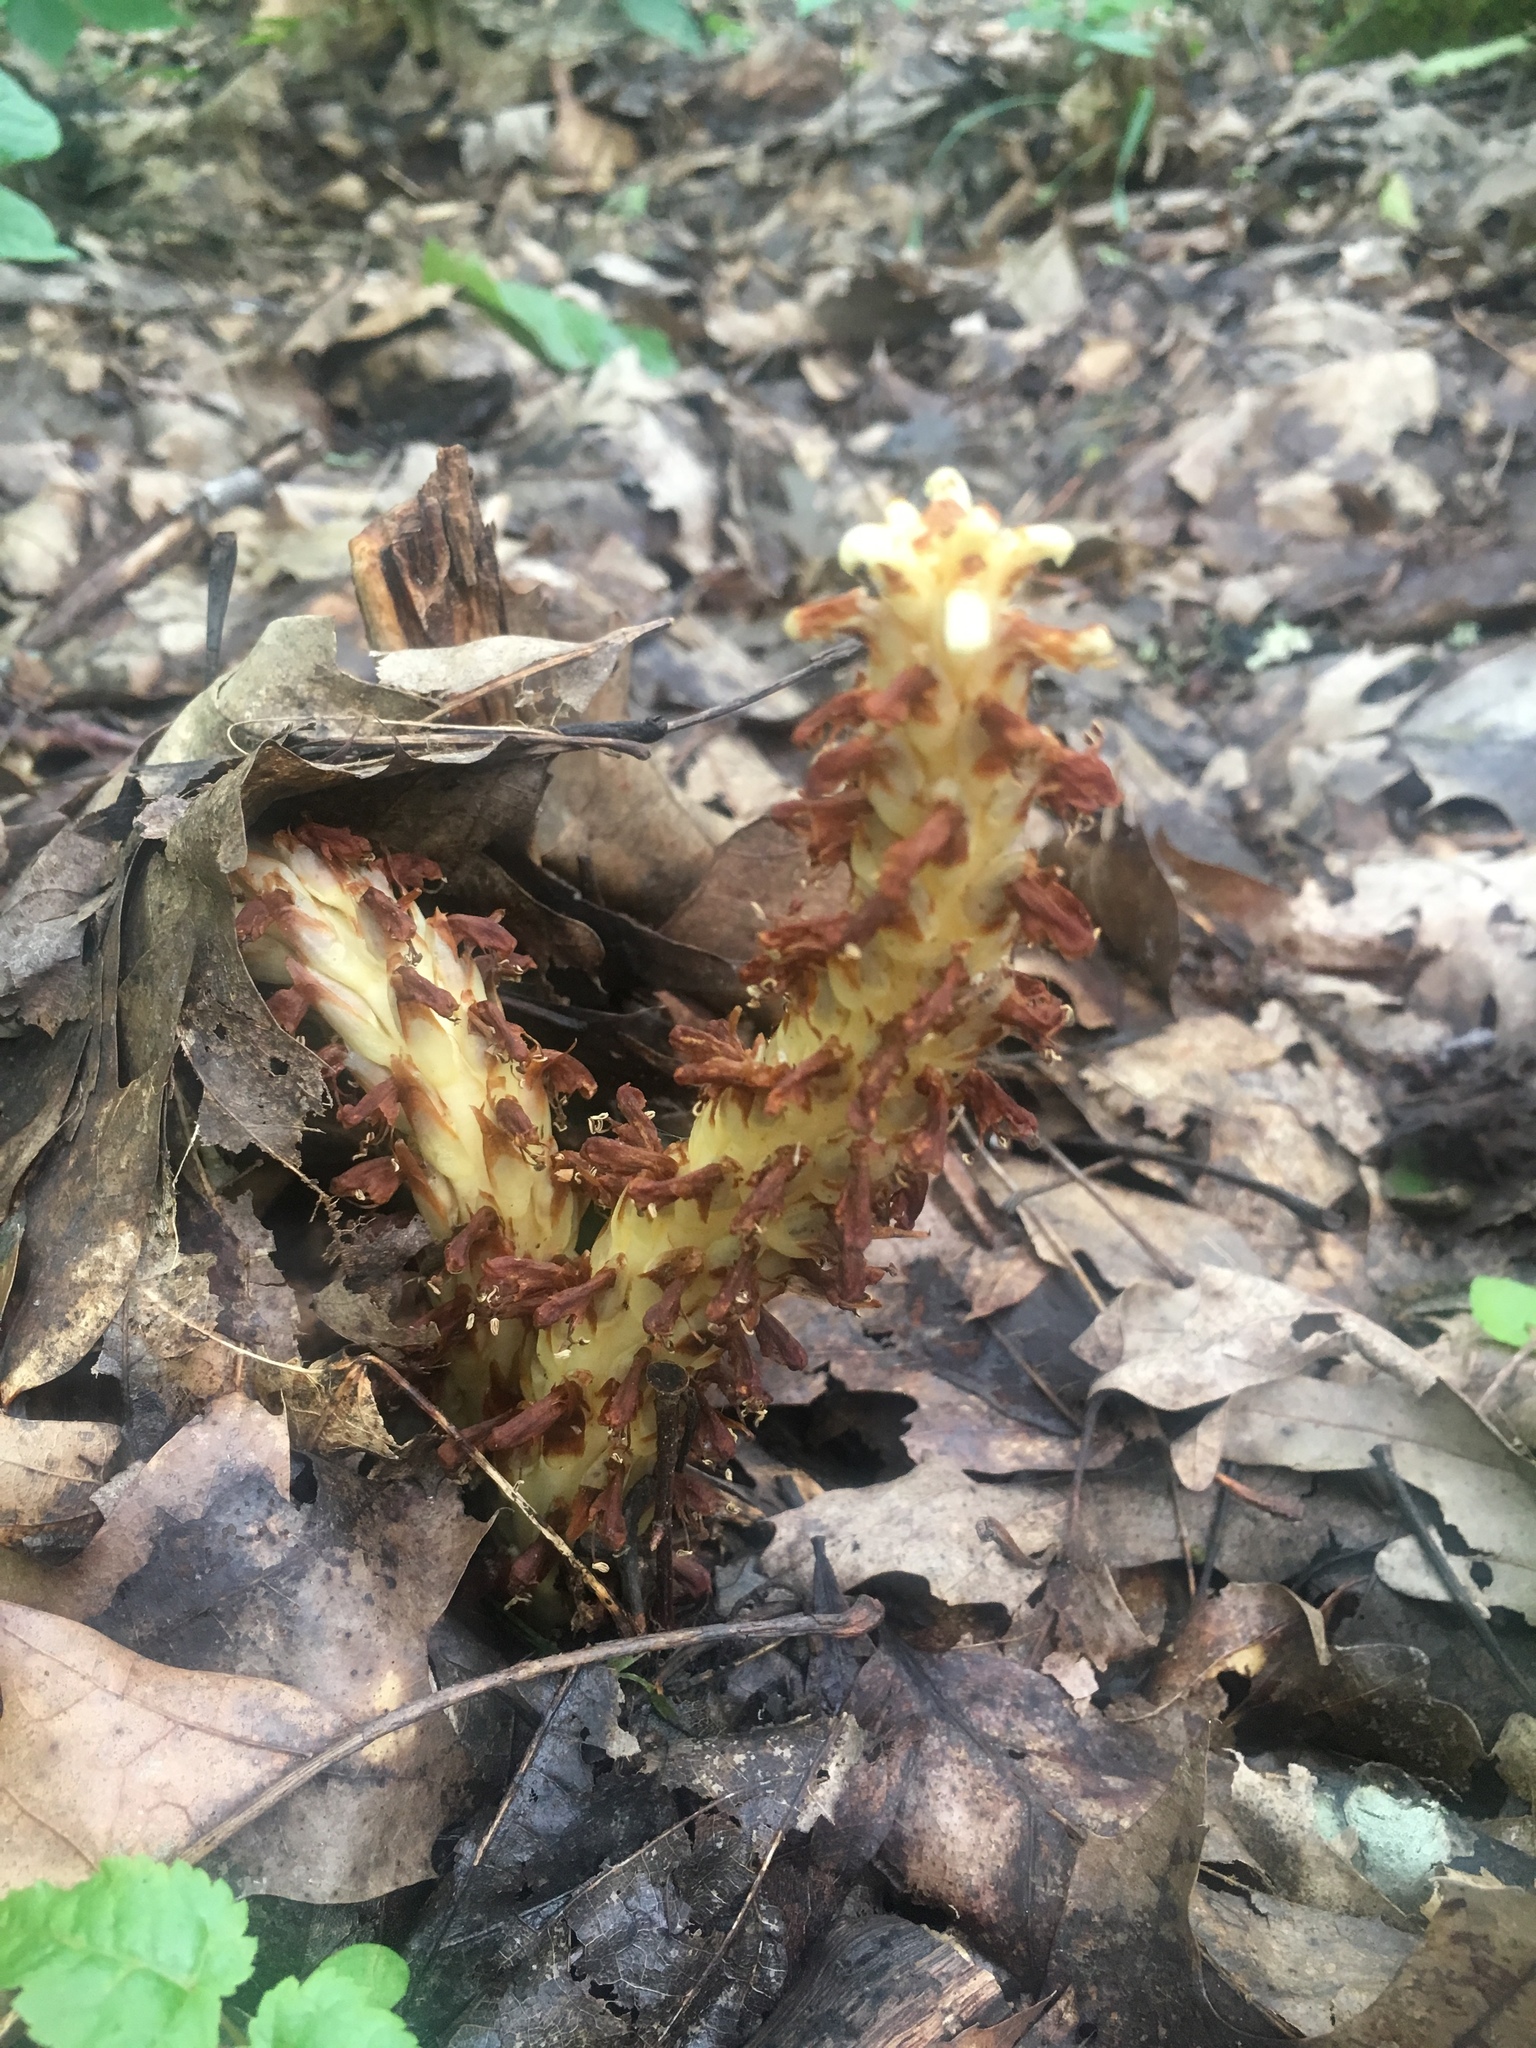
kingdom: Plantae
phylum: Tracheophyta
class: Magnoliopsida
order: Lamiales
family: Orobanchaceae
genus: Conopholis
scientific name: Conopholis americana
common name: American cancer-root
